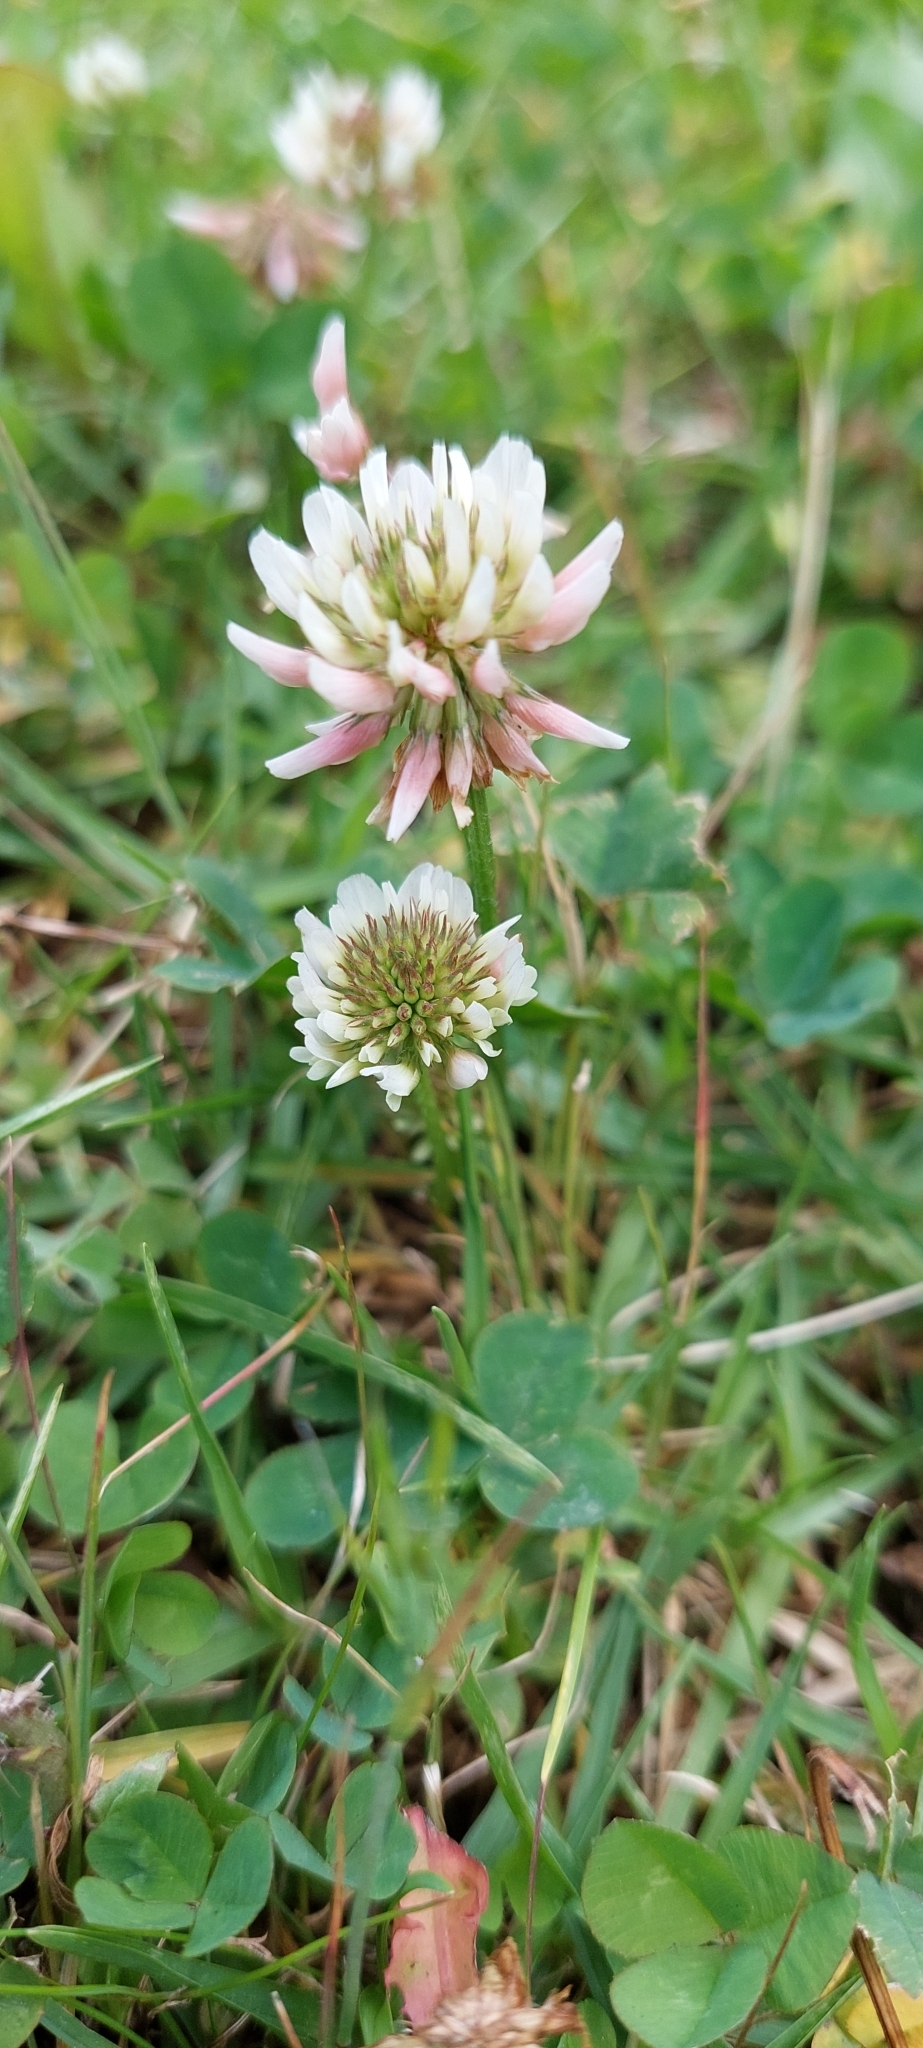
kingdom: Plantae
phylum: Tracheophyta
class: Magnoliopsida
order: Fabales
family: Fabaceae
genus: Trifolium
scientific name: Trifolium repens
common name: White clover
